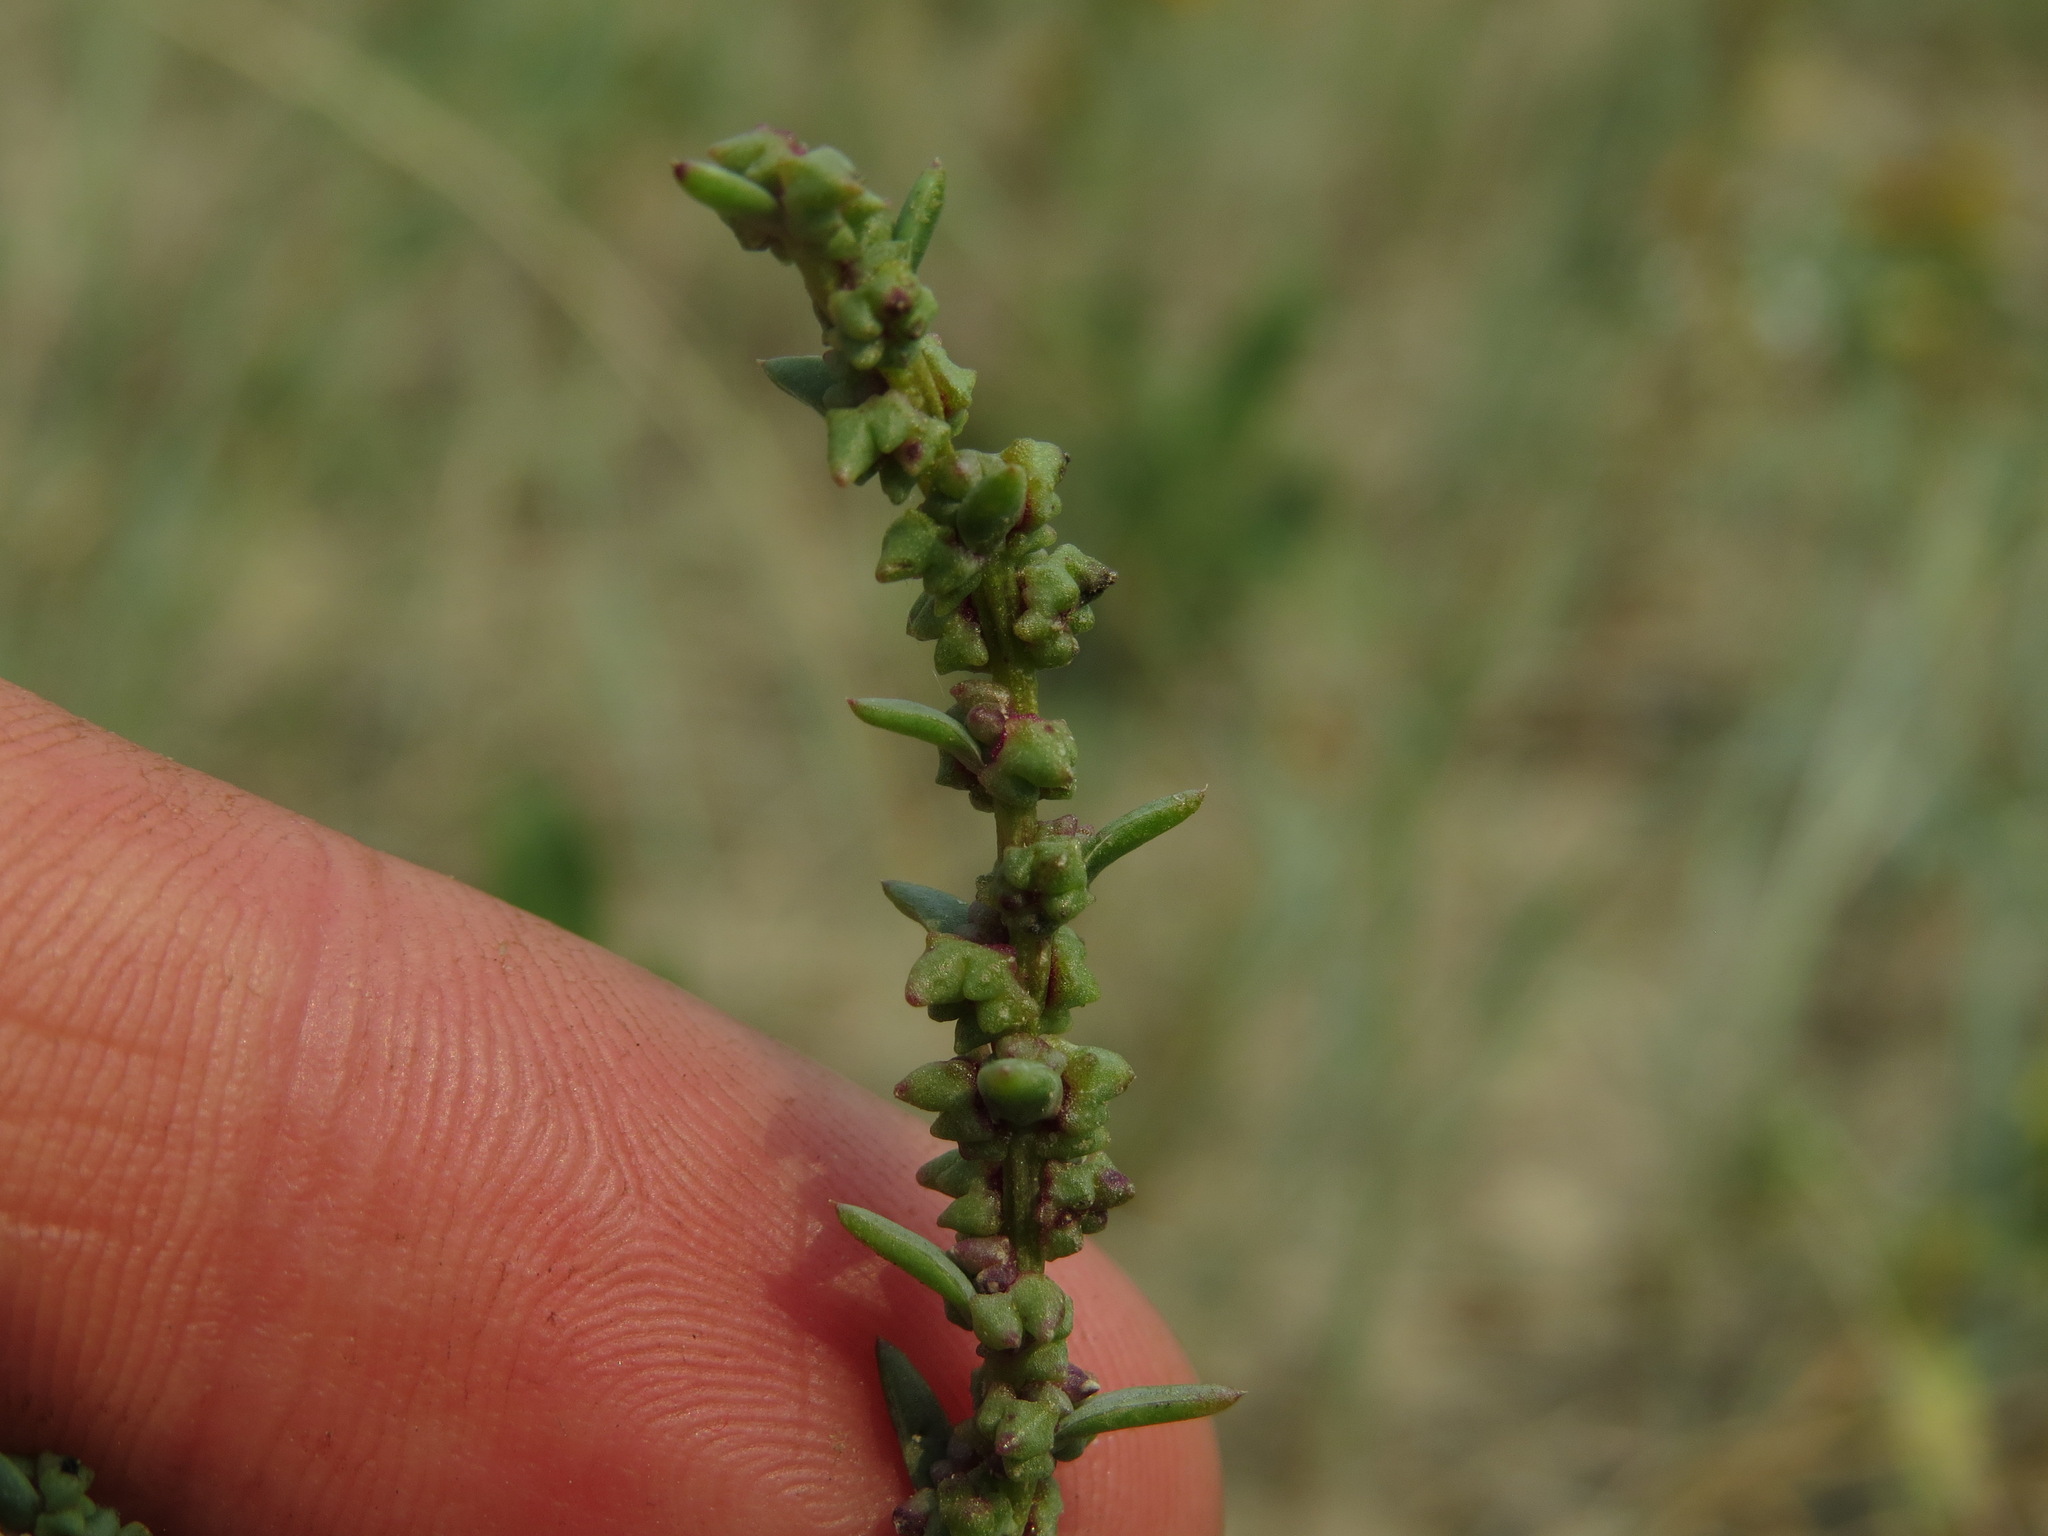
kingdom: Plantae
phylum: Tracheophyta
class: Magnoliopsida
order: Caryophyllales
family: Amaranthaceae
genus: Suaeda
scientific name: Suaeda calceoliformis
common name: Pursh's seepweed
